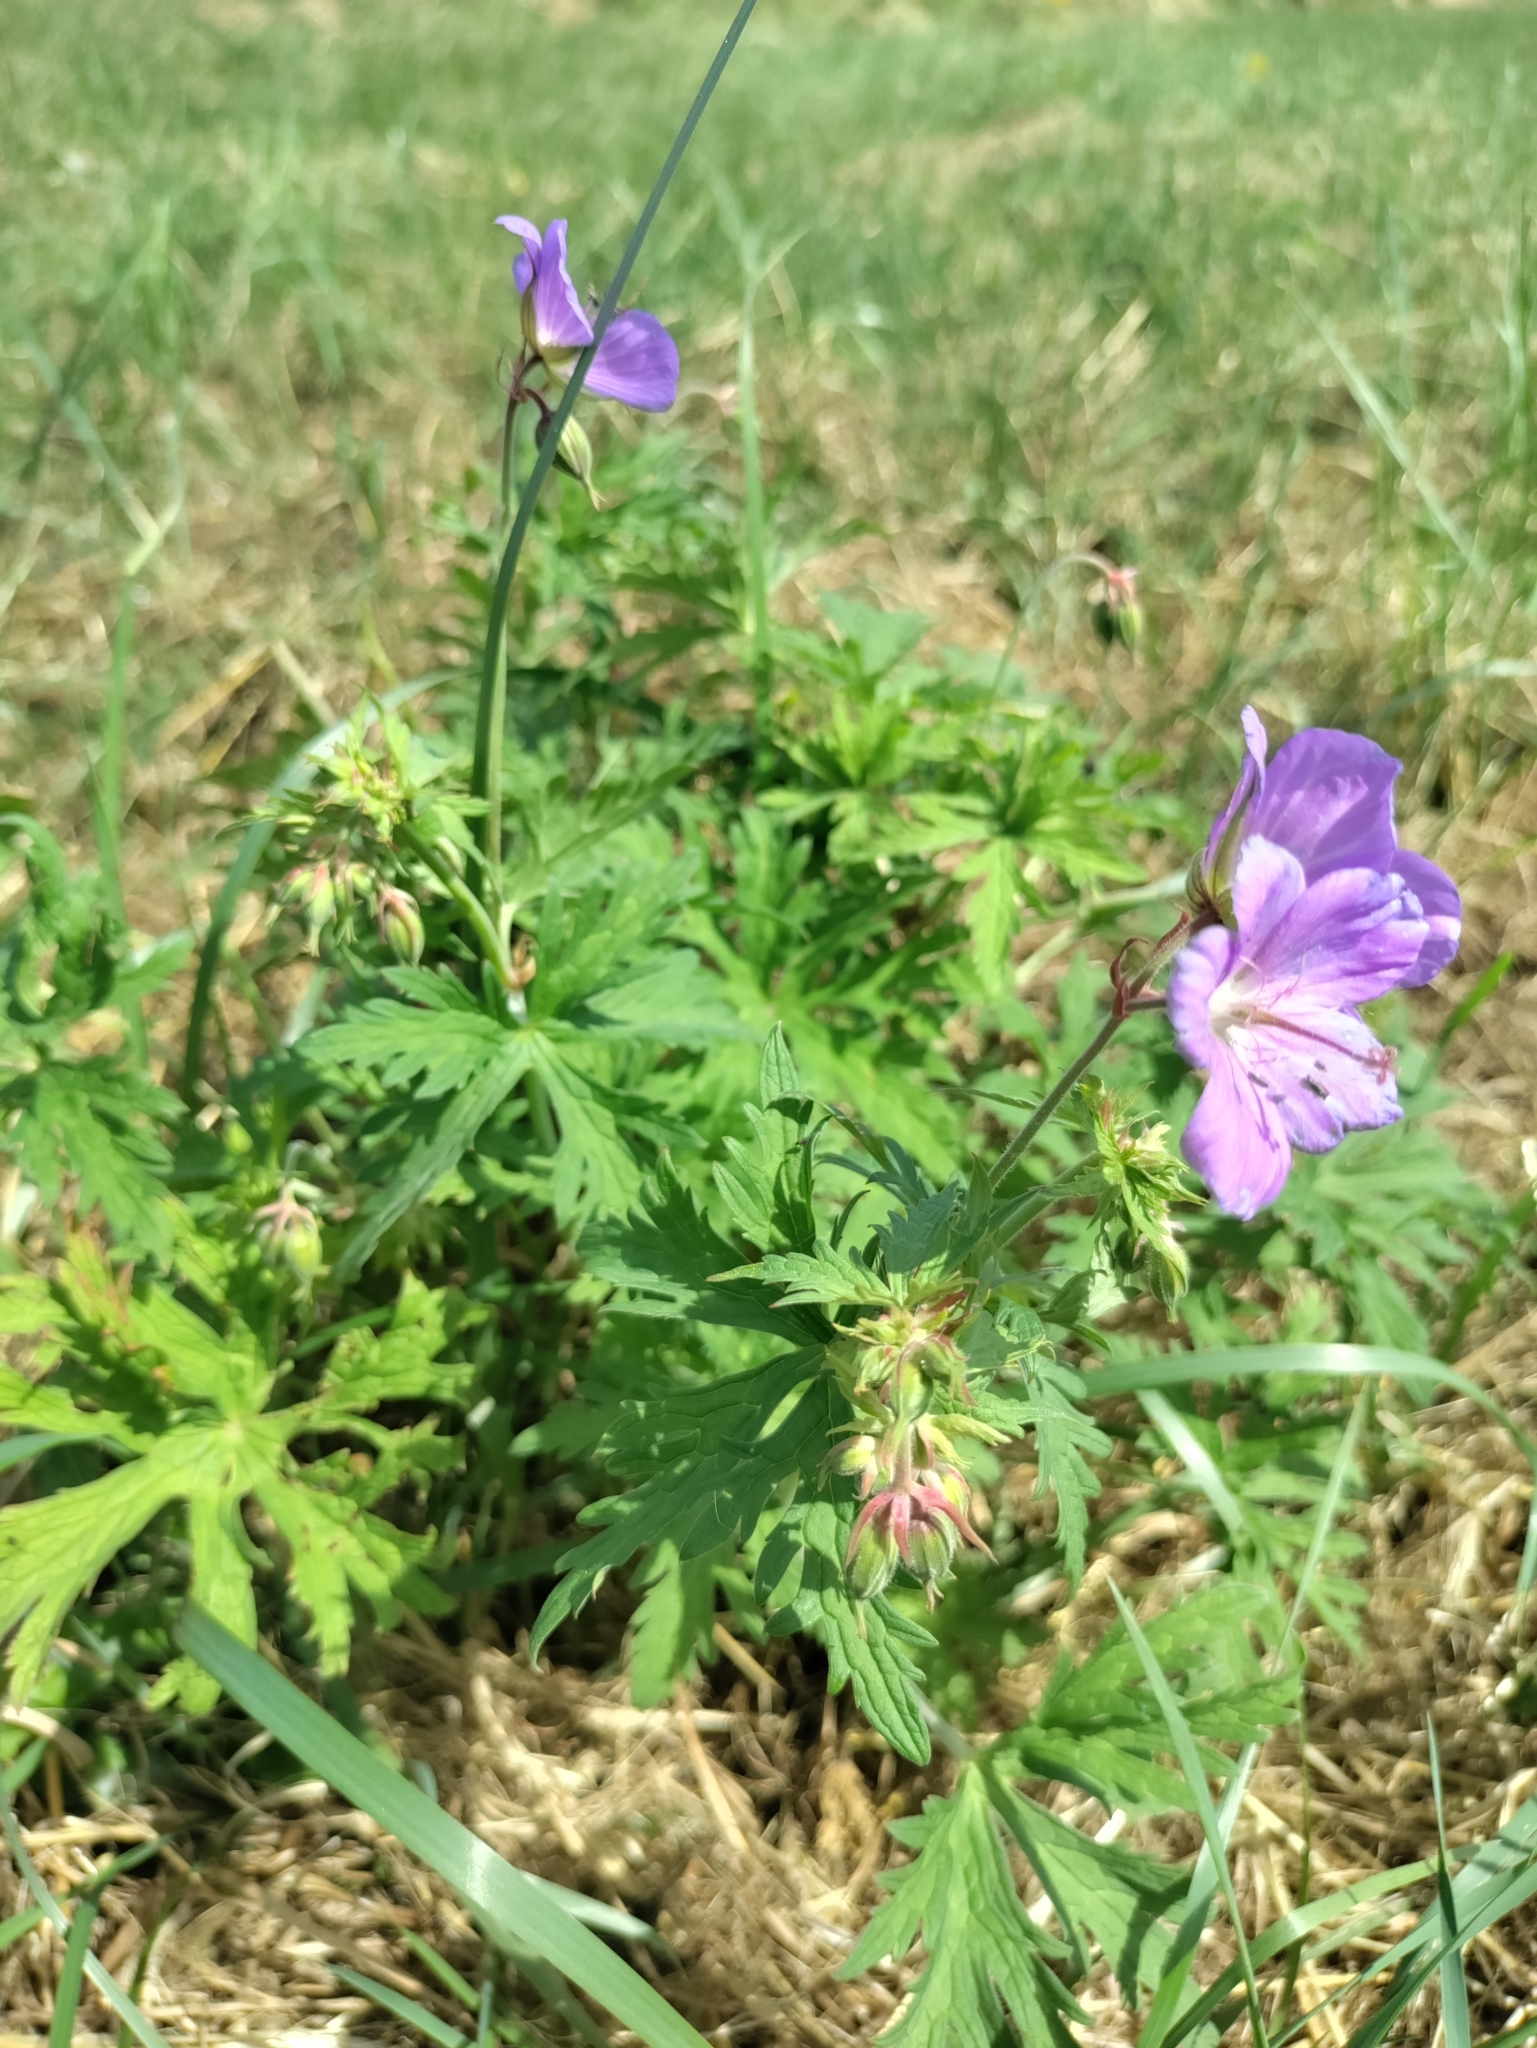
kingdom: Plantae
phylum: Tracheophyta
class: Magnoliopsida
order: Geraniales
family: Geraniaceae
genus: Geranium
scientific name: Geranium pratense
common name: Meadow crane's-bill
